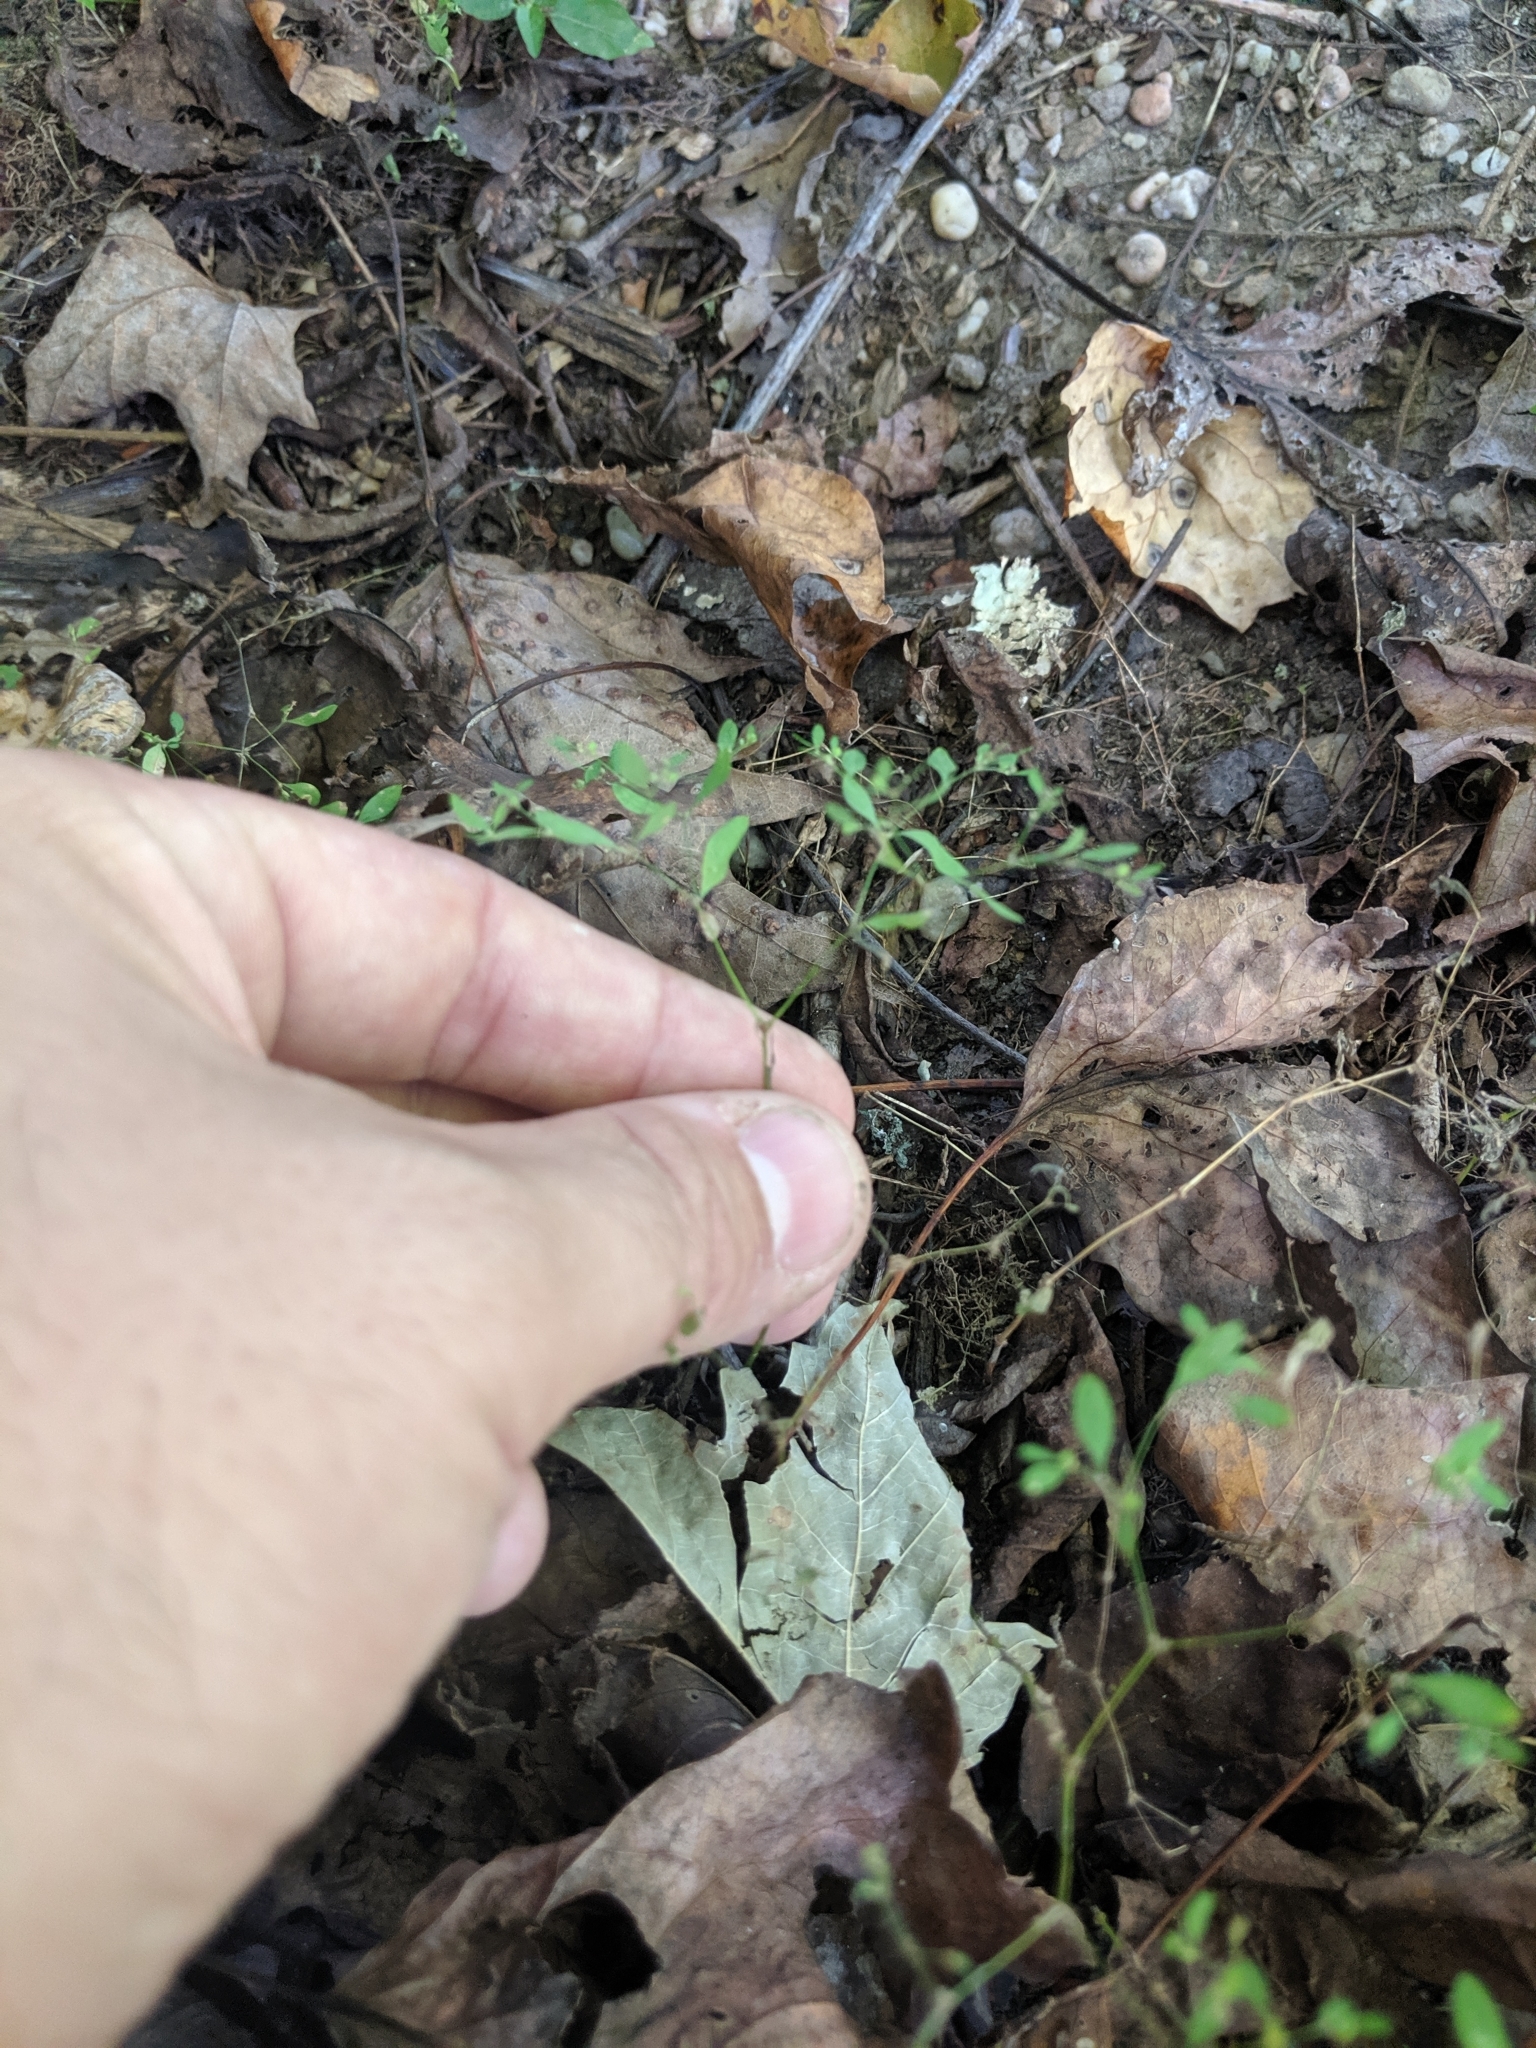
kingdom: Plantae
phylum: Tracheophyta
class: Magnoliopsida
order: Caryophyllales
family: Caryophyllaceae
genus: Paronychia
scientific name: Paronychia canadensis
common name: Canada forked nailwort
